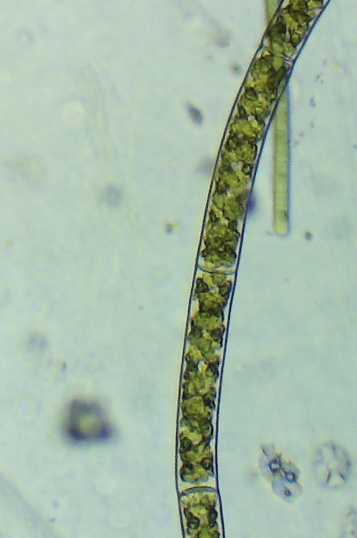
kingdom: Plantae
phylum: Charophyta
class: Zygnematophyceae
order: Zygnematales
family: Zygnemataceae
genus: Spirogyra
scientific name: Spirogyra
